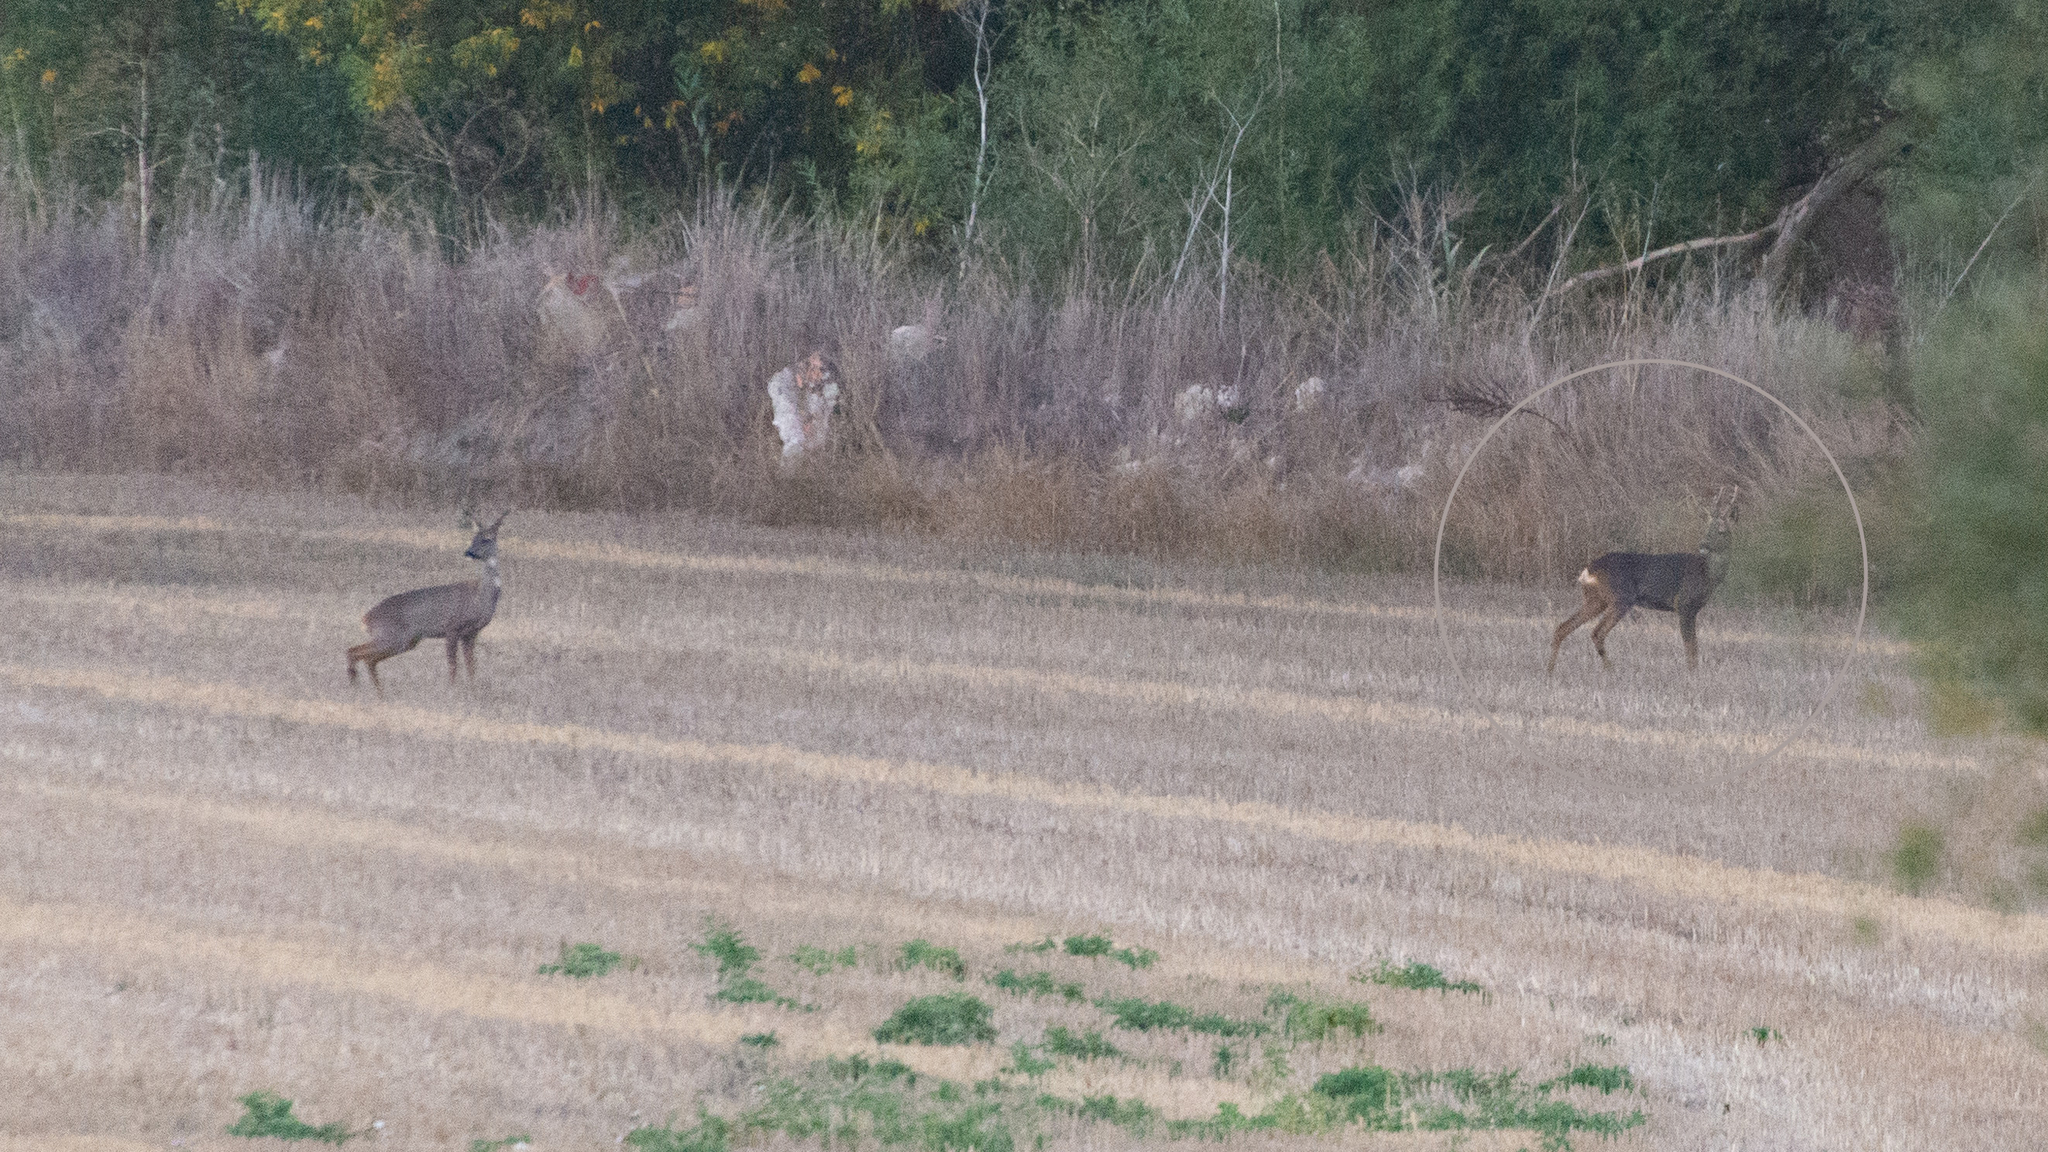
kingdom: Animalia
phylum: Chordata
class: Mammalia
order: Artiodactyla
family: Cervidae
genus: Capreolus
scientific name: Capreolus capreolus
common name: Western roe deer
